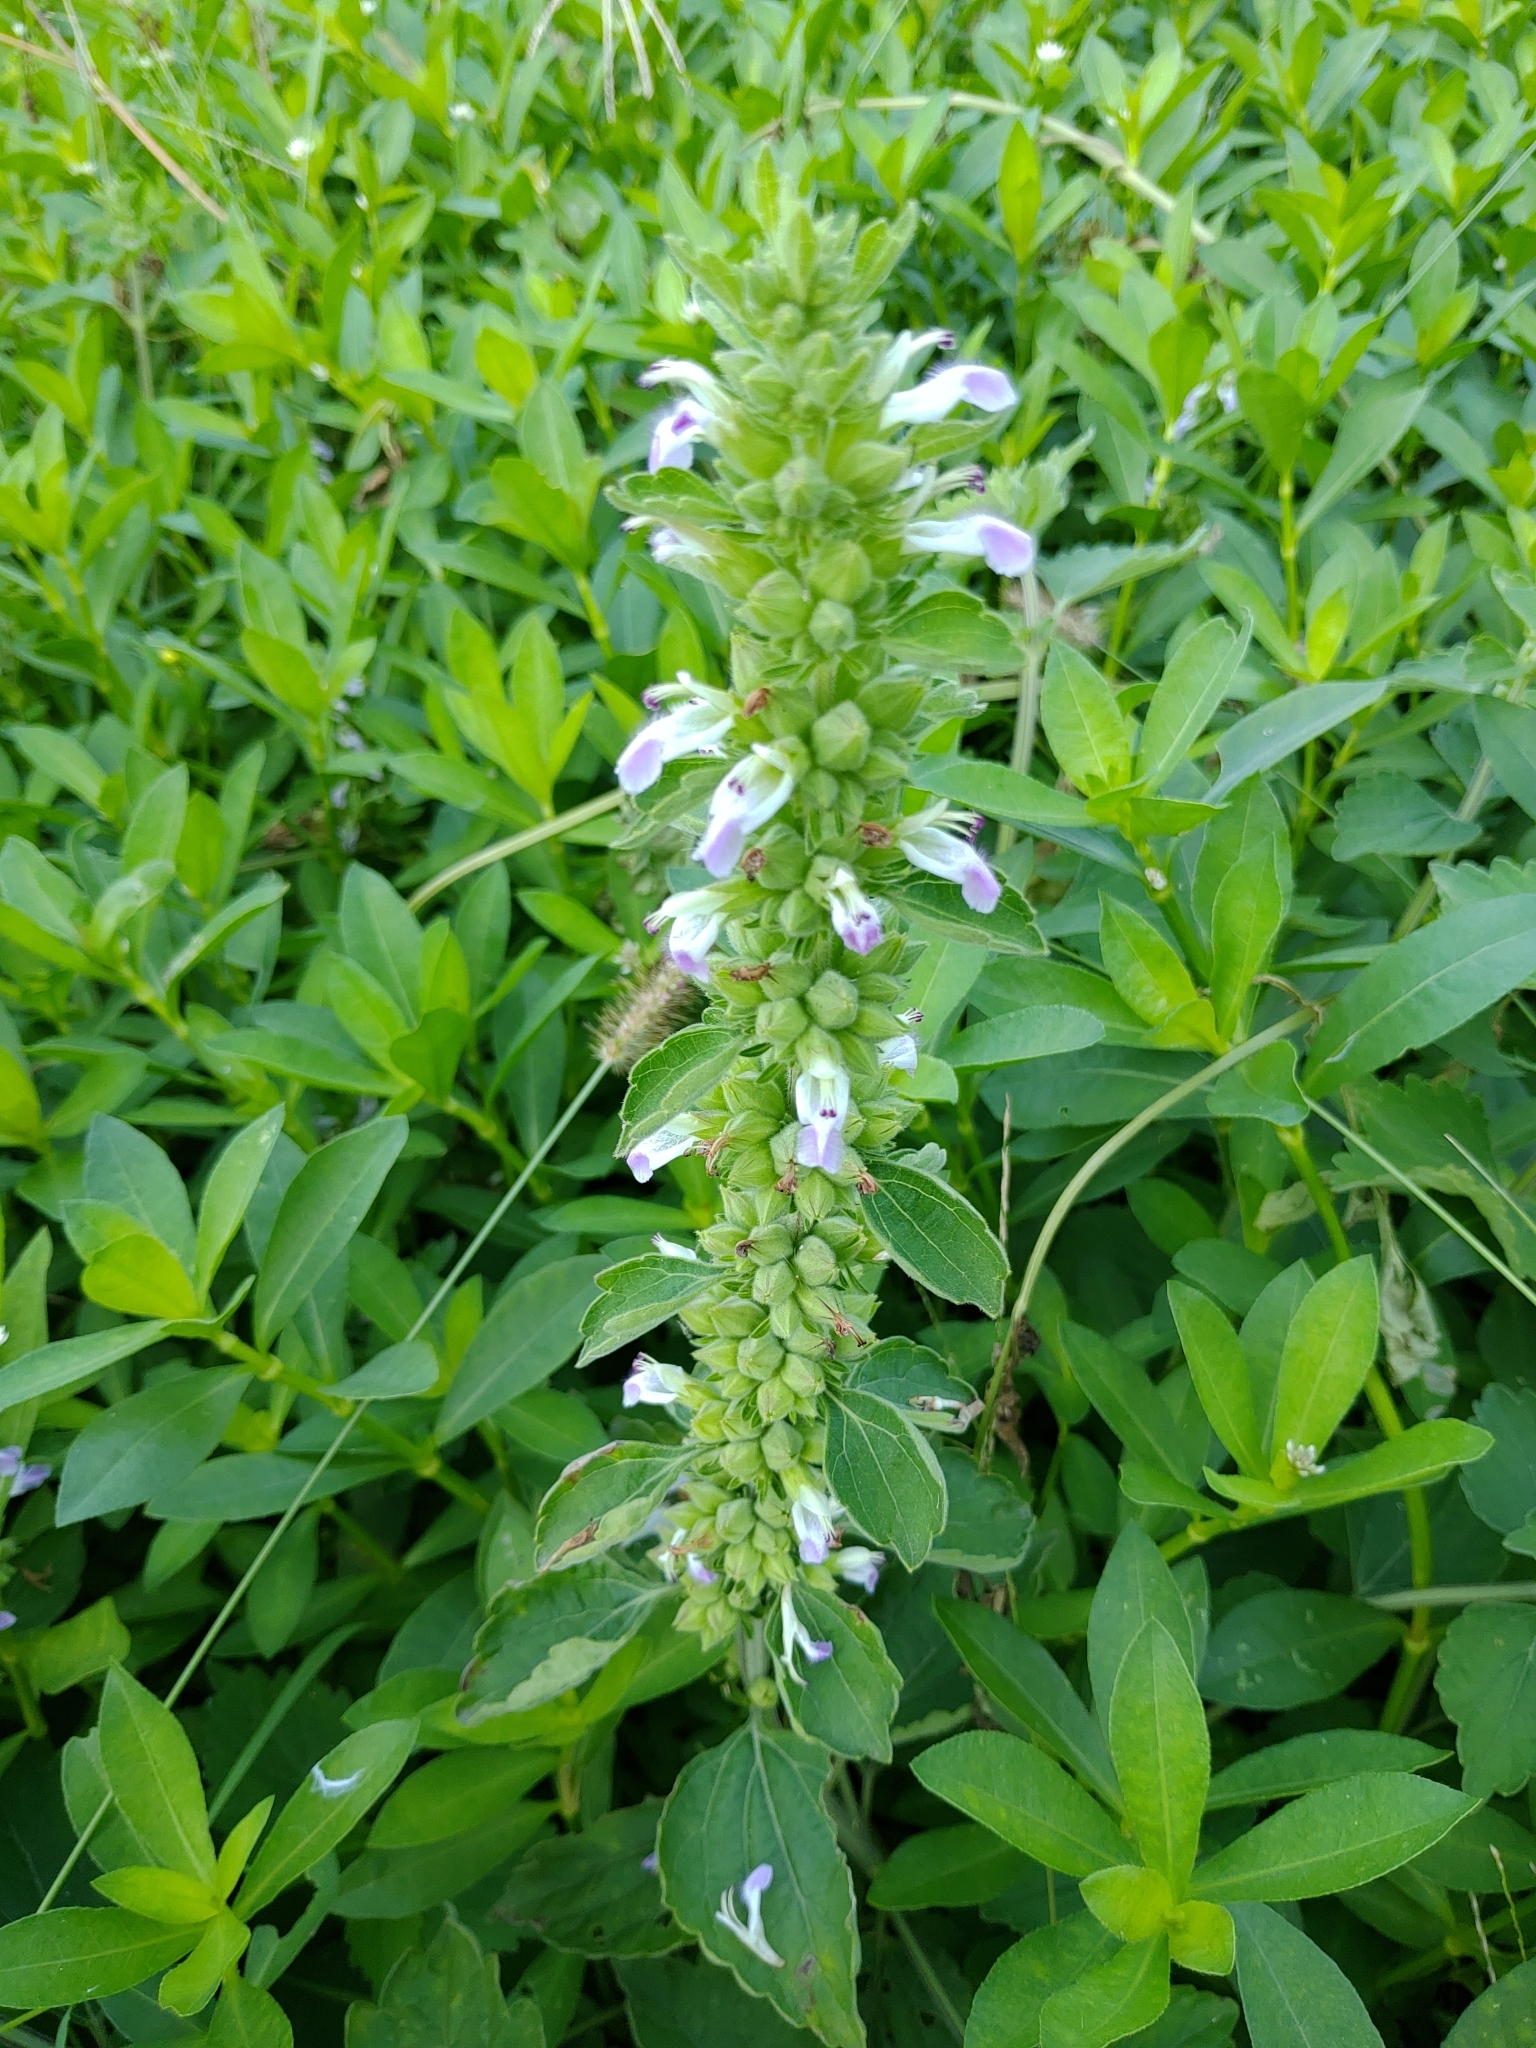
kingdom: Plantae
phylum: Tracheophyta
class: Magnoliopsida
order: Lamiales
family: Lamiaceae
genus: Anisomeles
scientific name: Anisomeles indica
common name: Catmint
